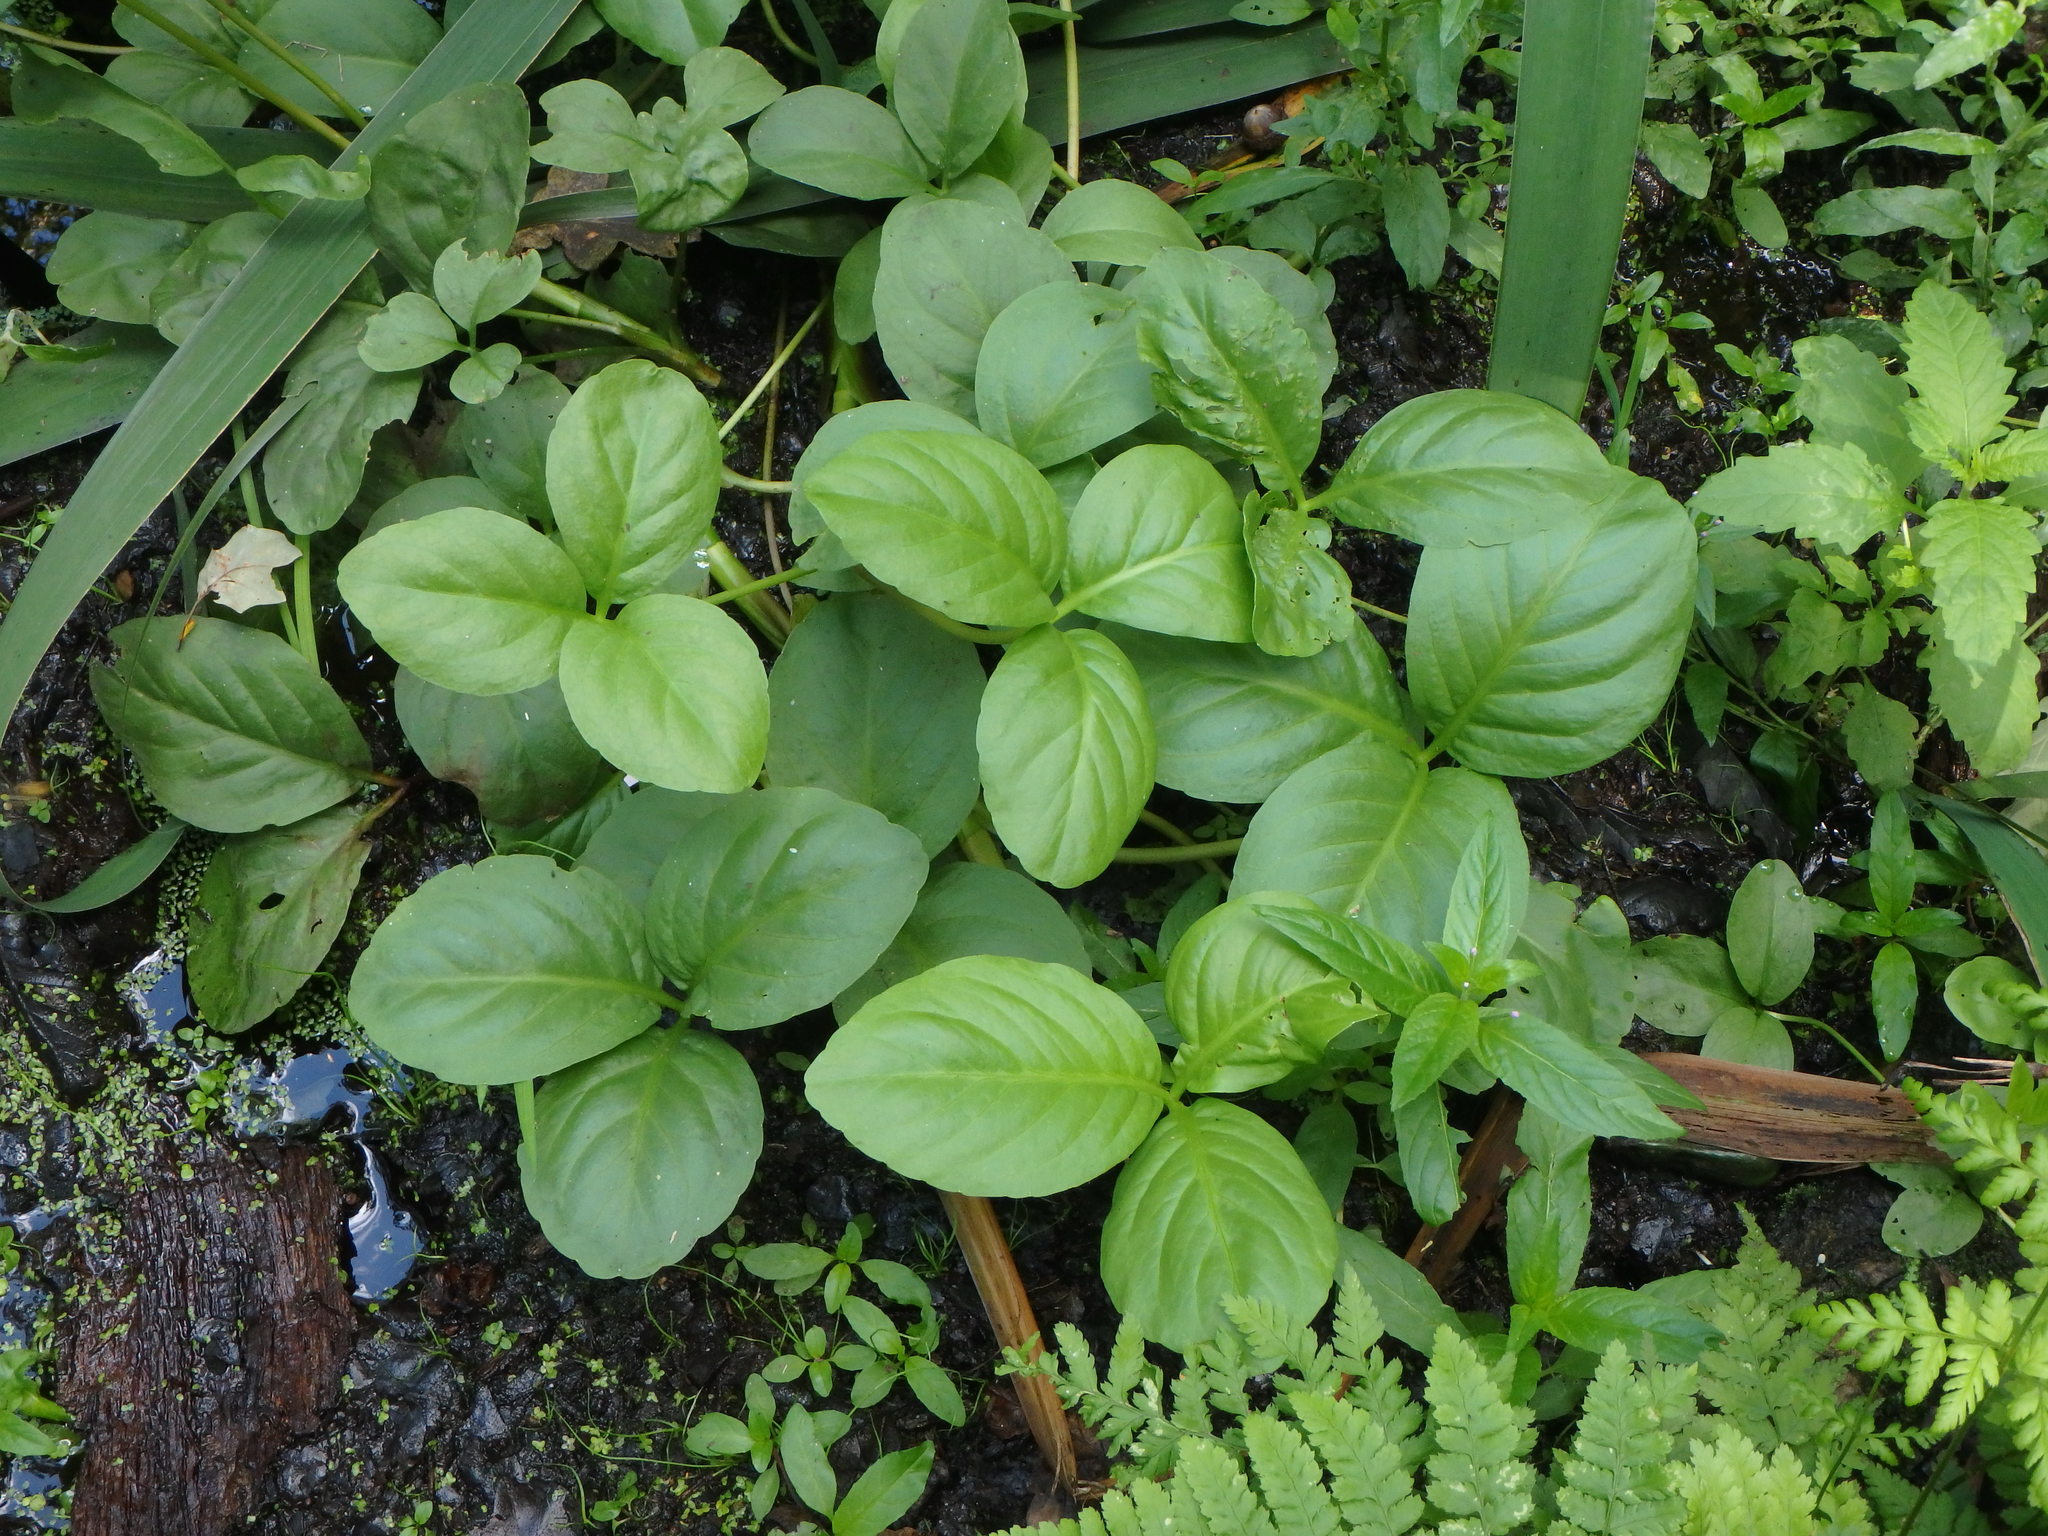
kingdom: Plantae
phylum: Tracheophyta
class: Magnoliopsida
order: Asterales
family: Menyanthaceae
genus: Menyanthes
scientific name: Menyanthes trifoliata
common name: Bogbean
